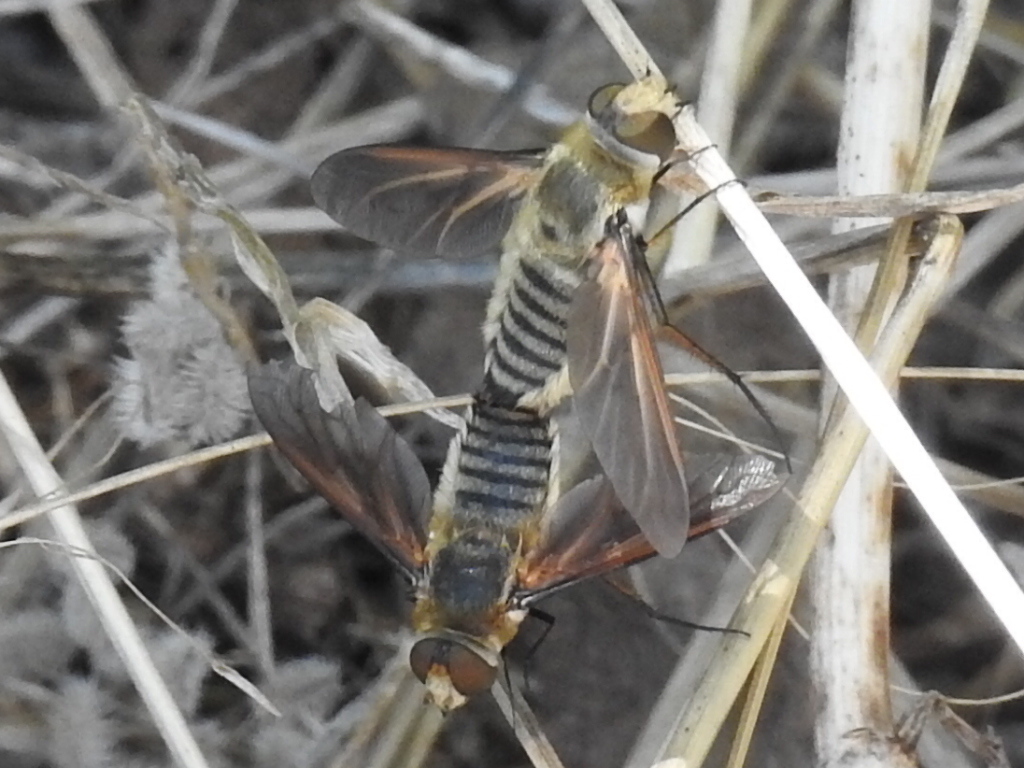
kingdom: Animalia
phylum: Arthropoda
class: Insecta
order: Diptera
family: Bombyliidae
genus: Poecilanthrax
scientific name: Poecilanthrax lucifer
